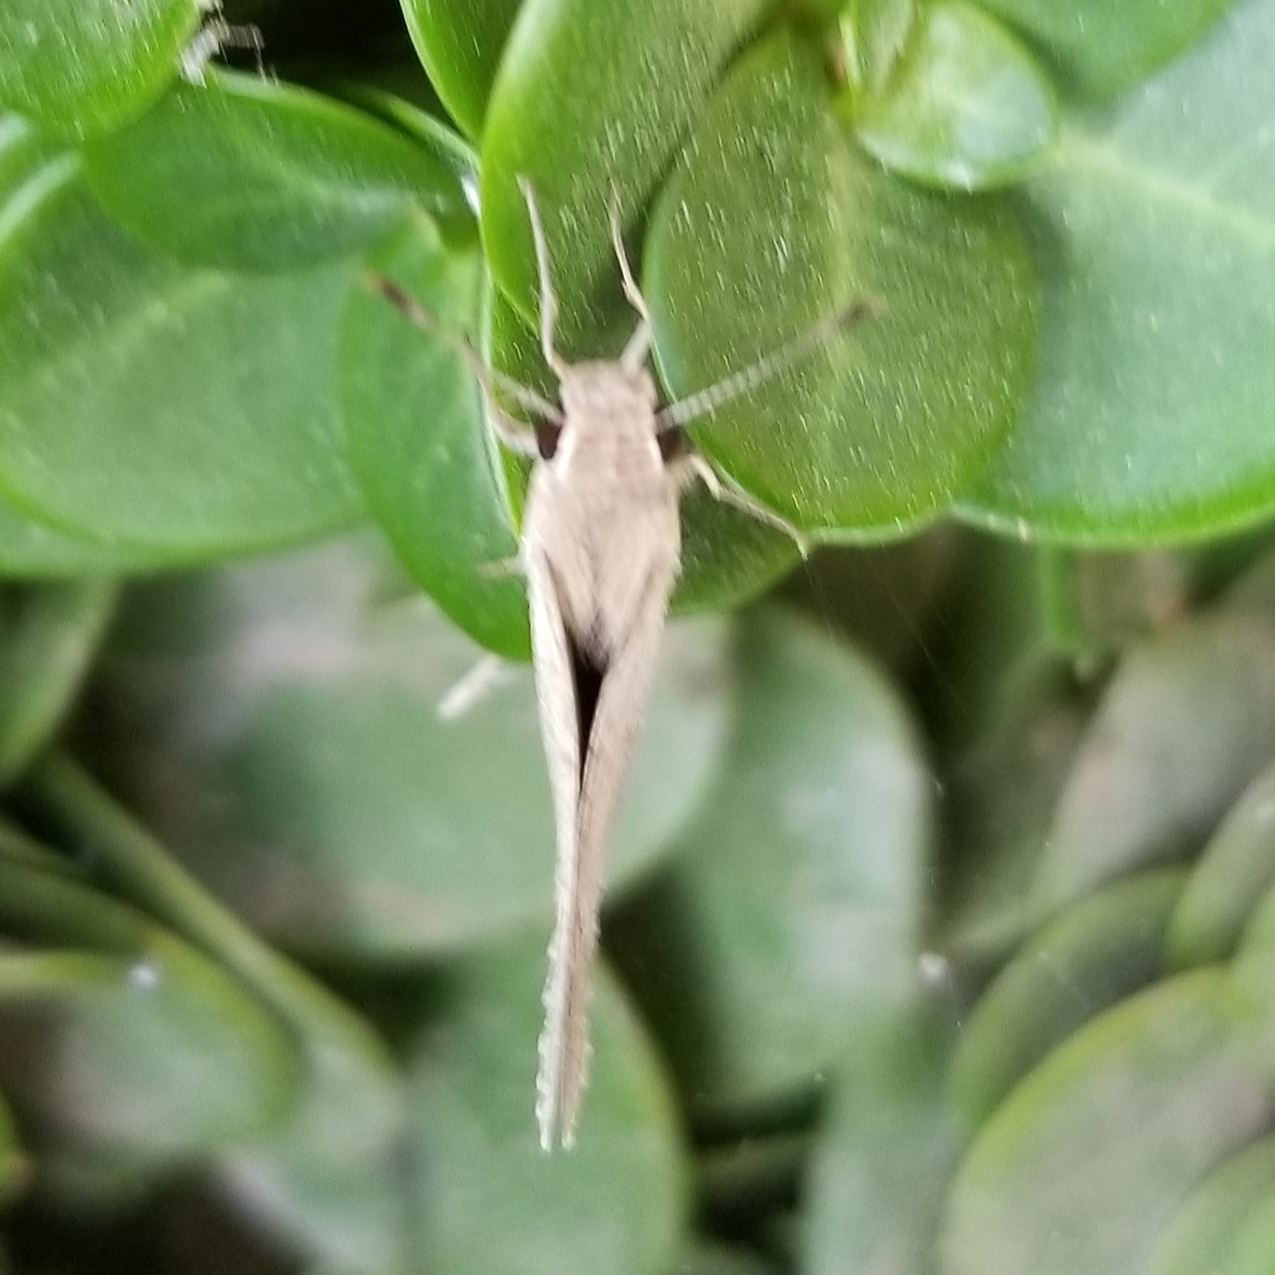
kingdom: Animalia
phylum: Arthropoda
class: Insecta
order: Lepidoptera
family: Hesperiidae
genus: Lerodea
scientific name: Lerodea eufala
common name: Eufala skipper
